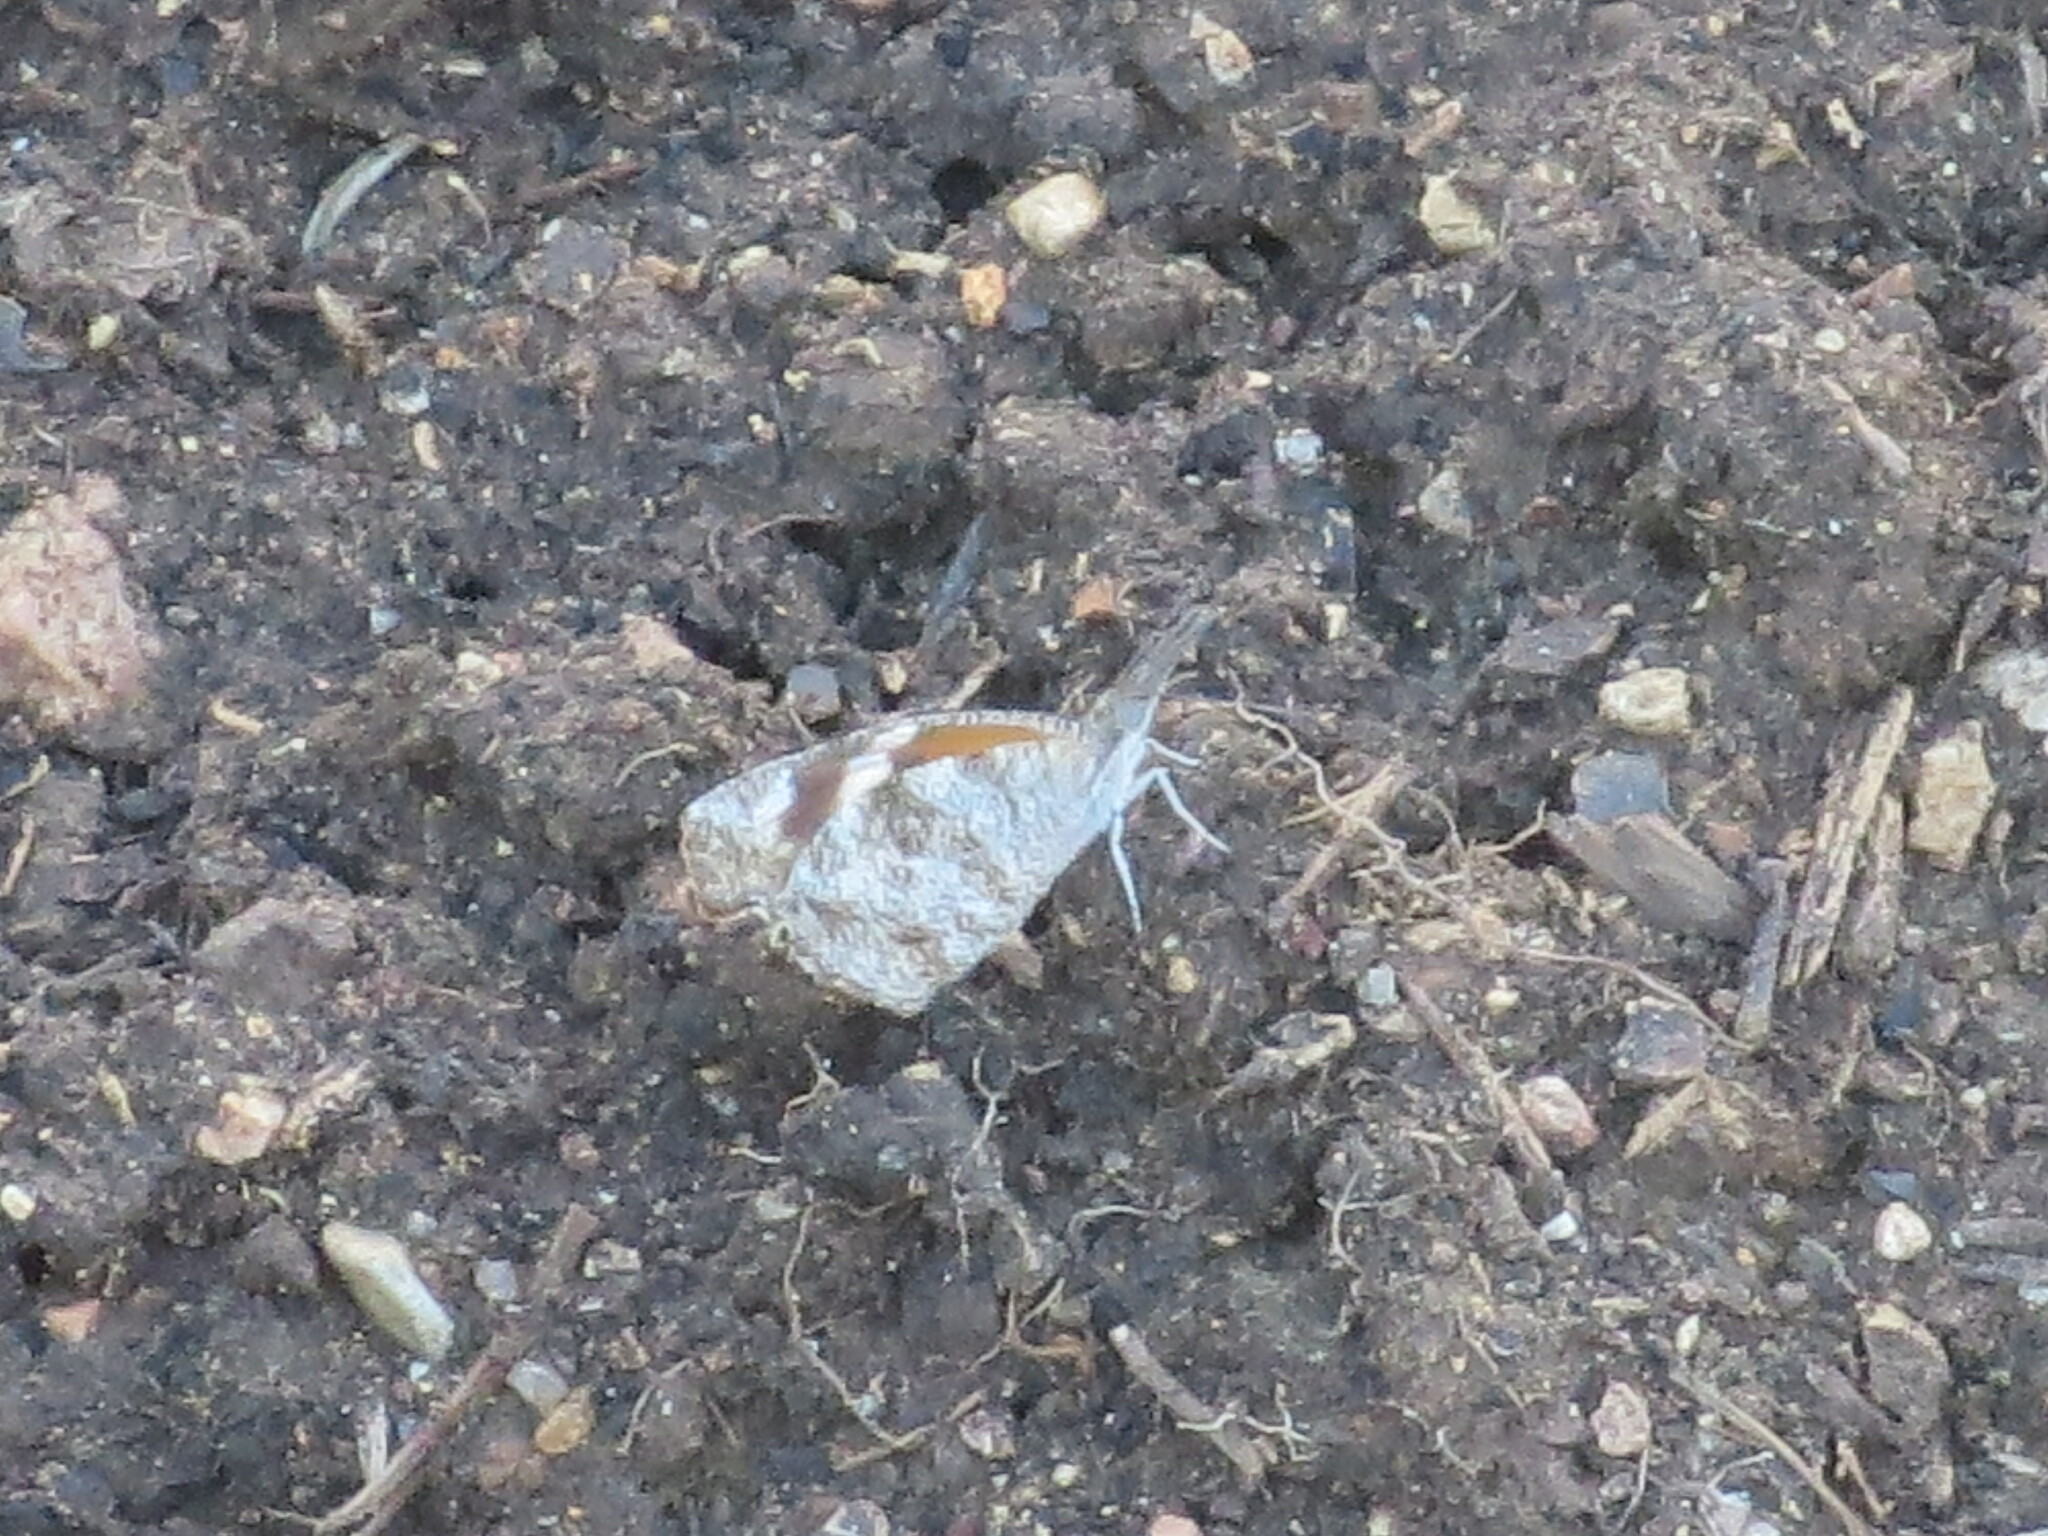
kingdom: Animalia
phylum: Arthropoda
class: Insecta
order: Lepidoptera
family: Nymphalidae
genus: Libytheana
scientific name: Libytheana carinenta
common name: American snout
